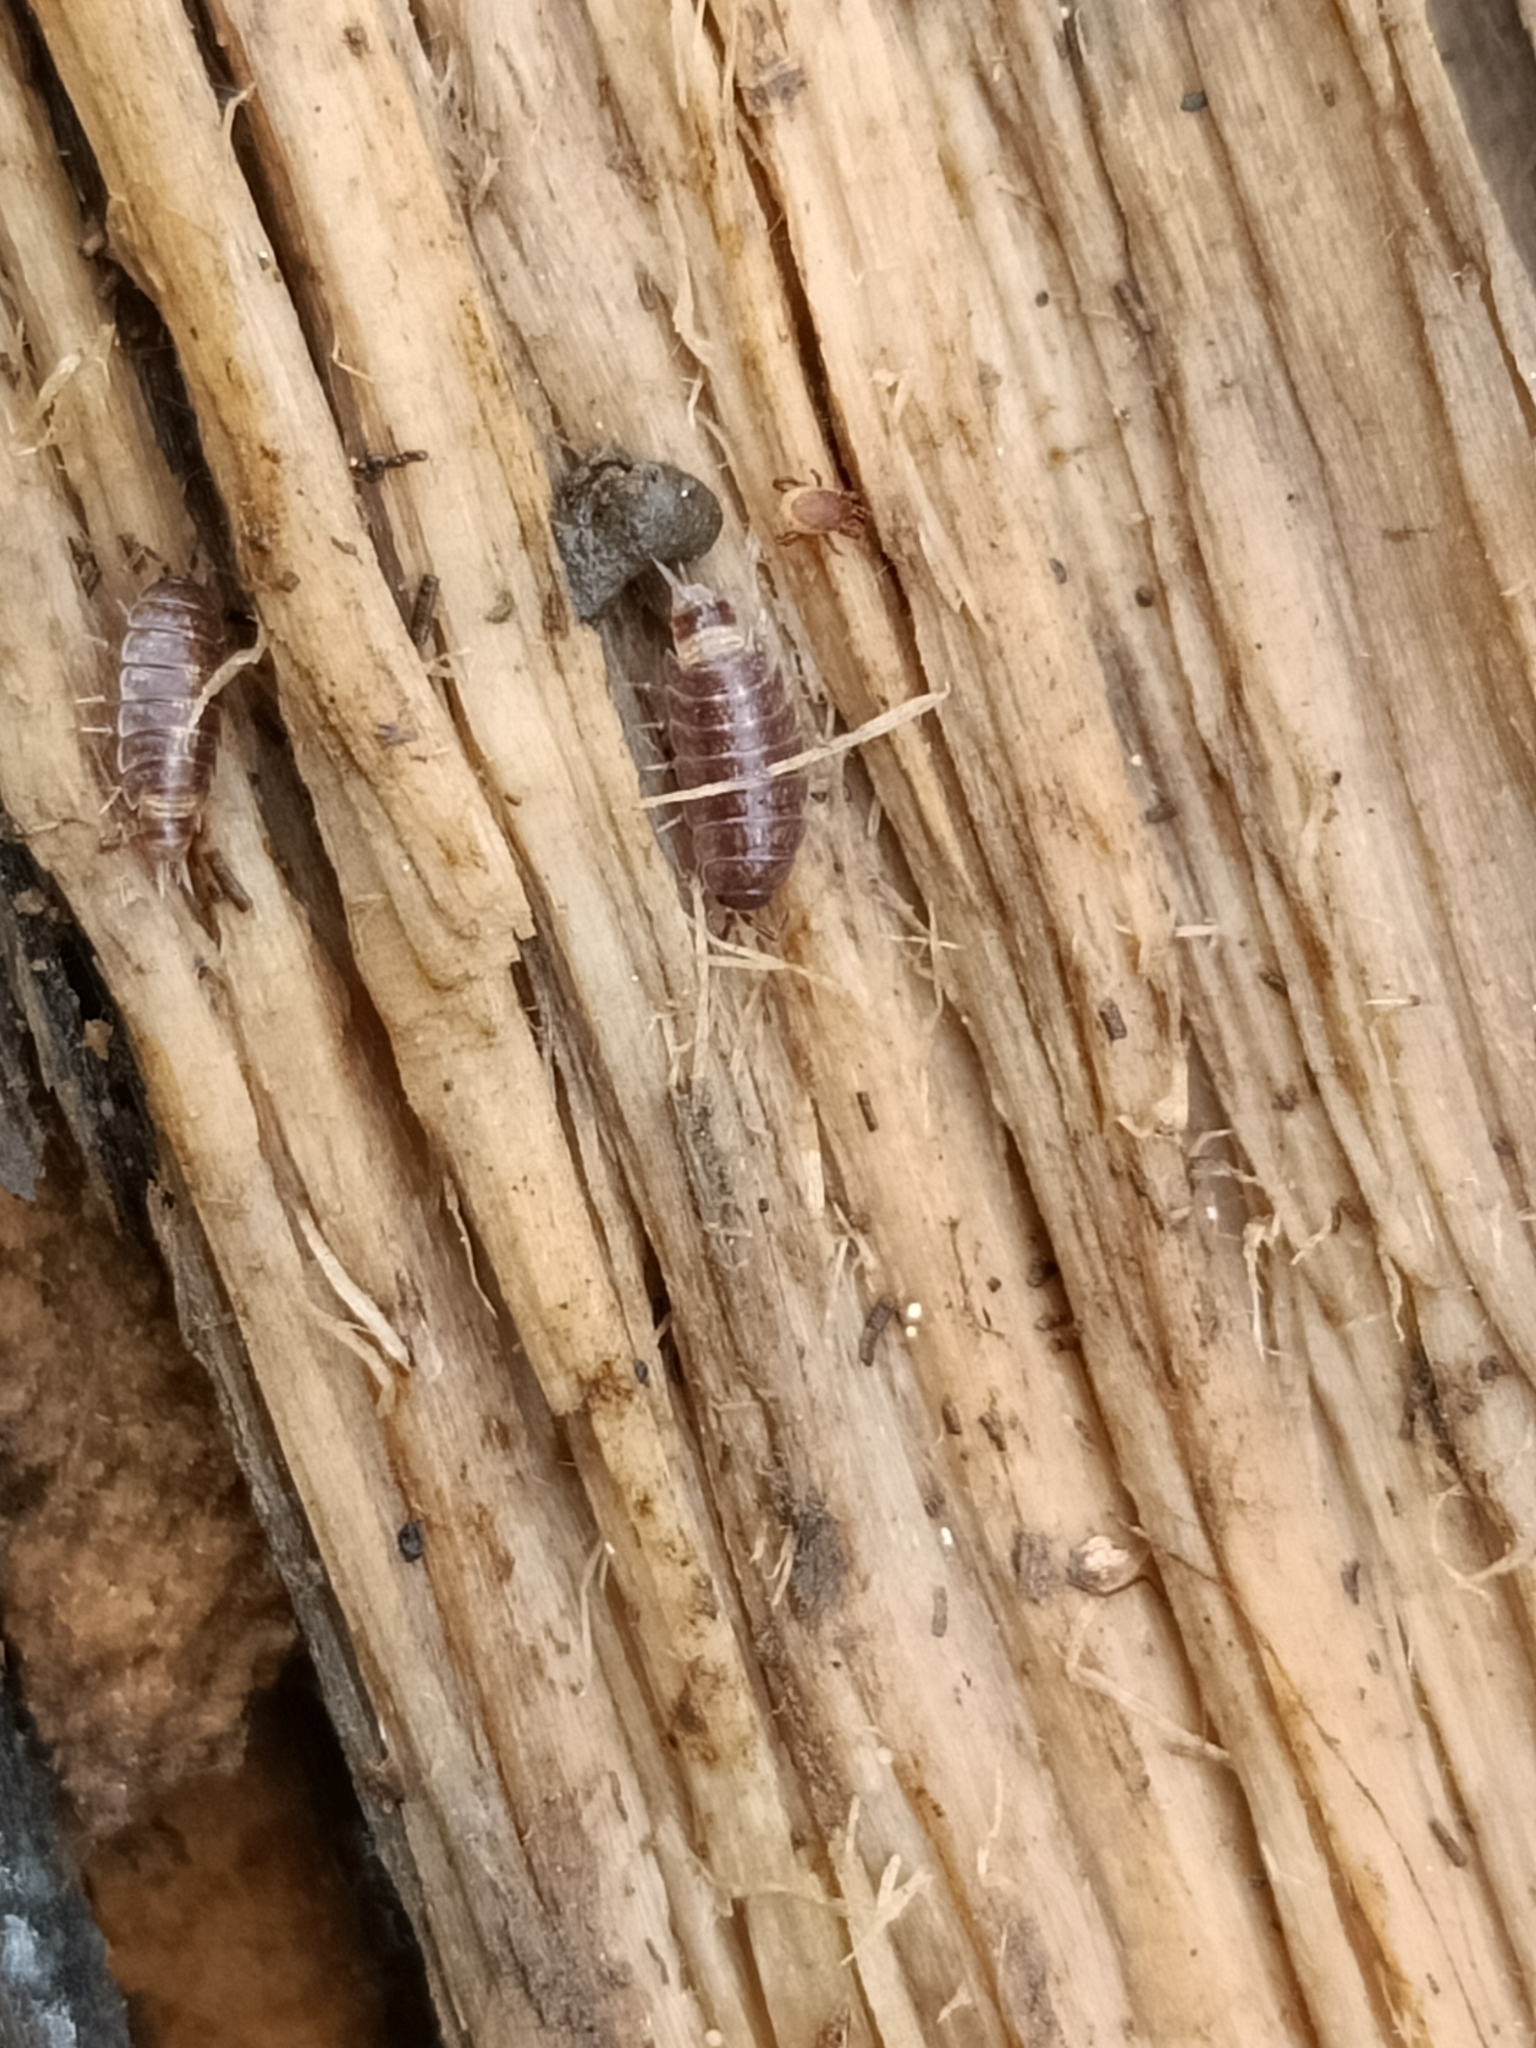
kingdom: Animalia
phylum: Arthropoda
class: Malacostraca
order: Isopoda
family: Trichoniscidae
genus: Hyloniscus
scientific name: Hyloniscus riparius
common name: Isopod
